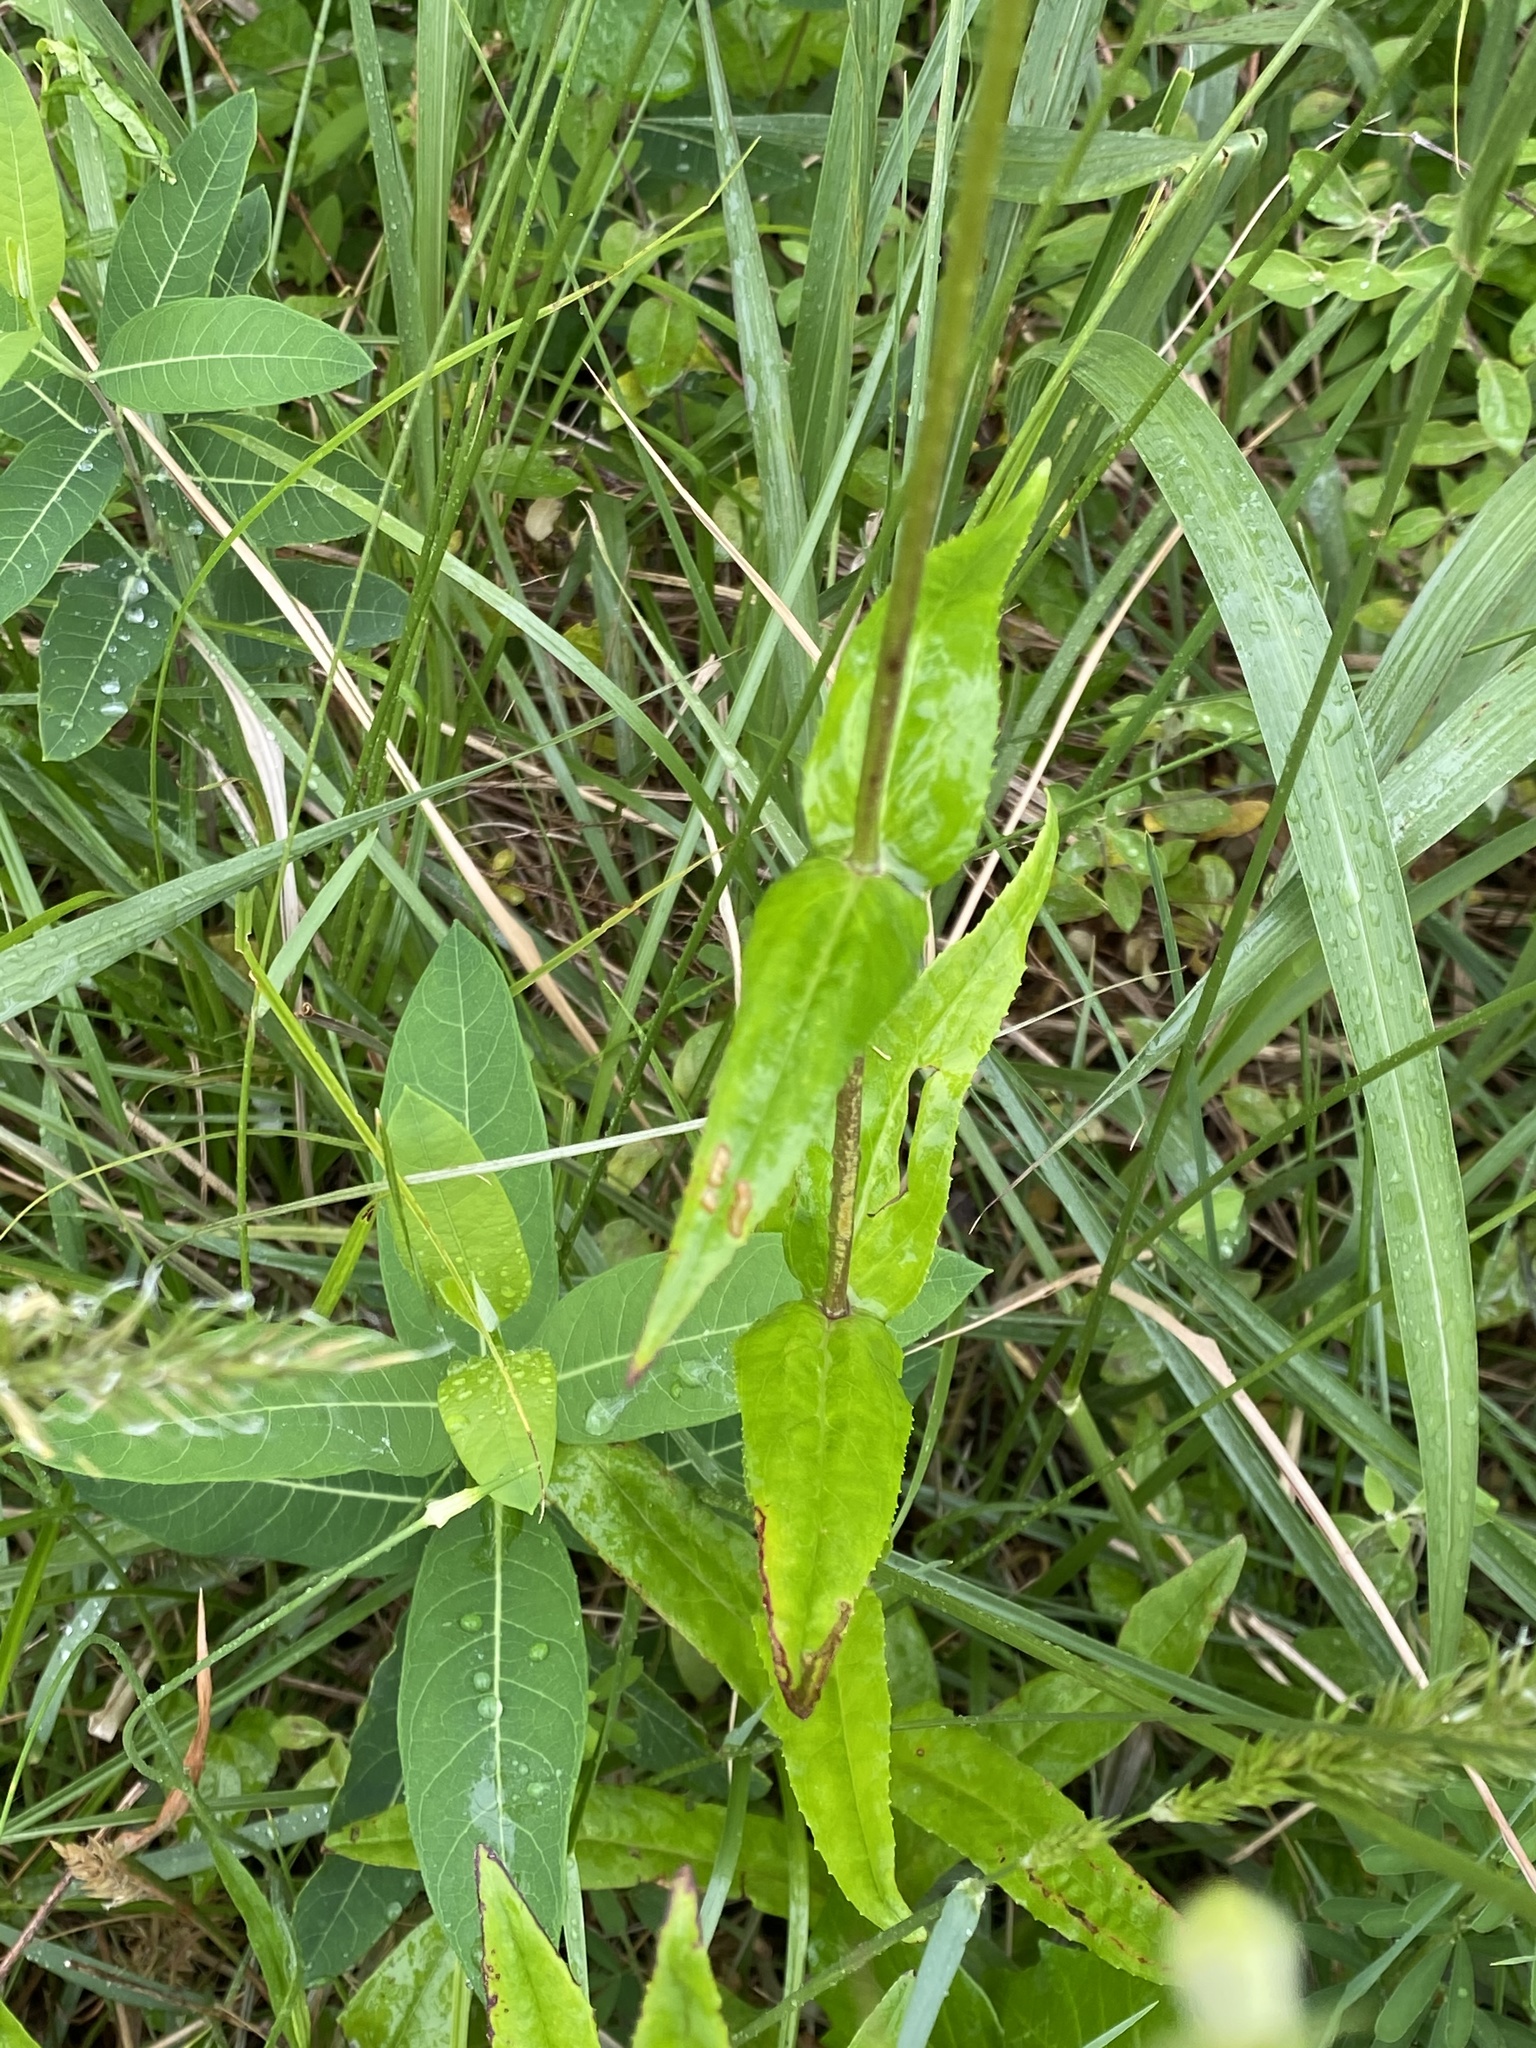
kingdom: Plantae
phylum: Tracheophyta
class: Magnoliopsida
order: Lamiales
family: Plantaginaceae
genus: Penstemon
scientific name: Penstemon digitalis
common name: Foxglove beardtongue
